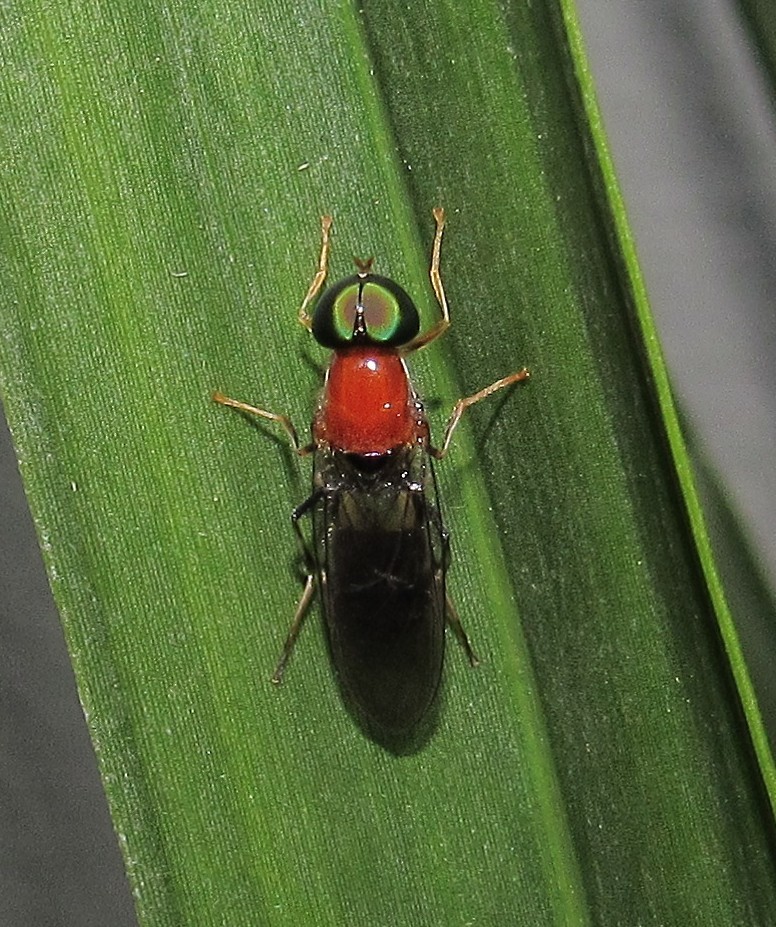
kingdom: Animalia
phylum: Arthropoda
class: Insecta
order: Diptera
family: Stratiomyidae
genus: Sargus
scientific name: Sargus thoracicus
